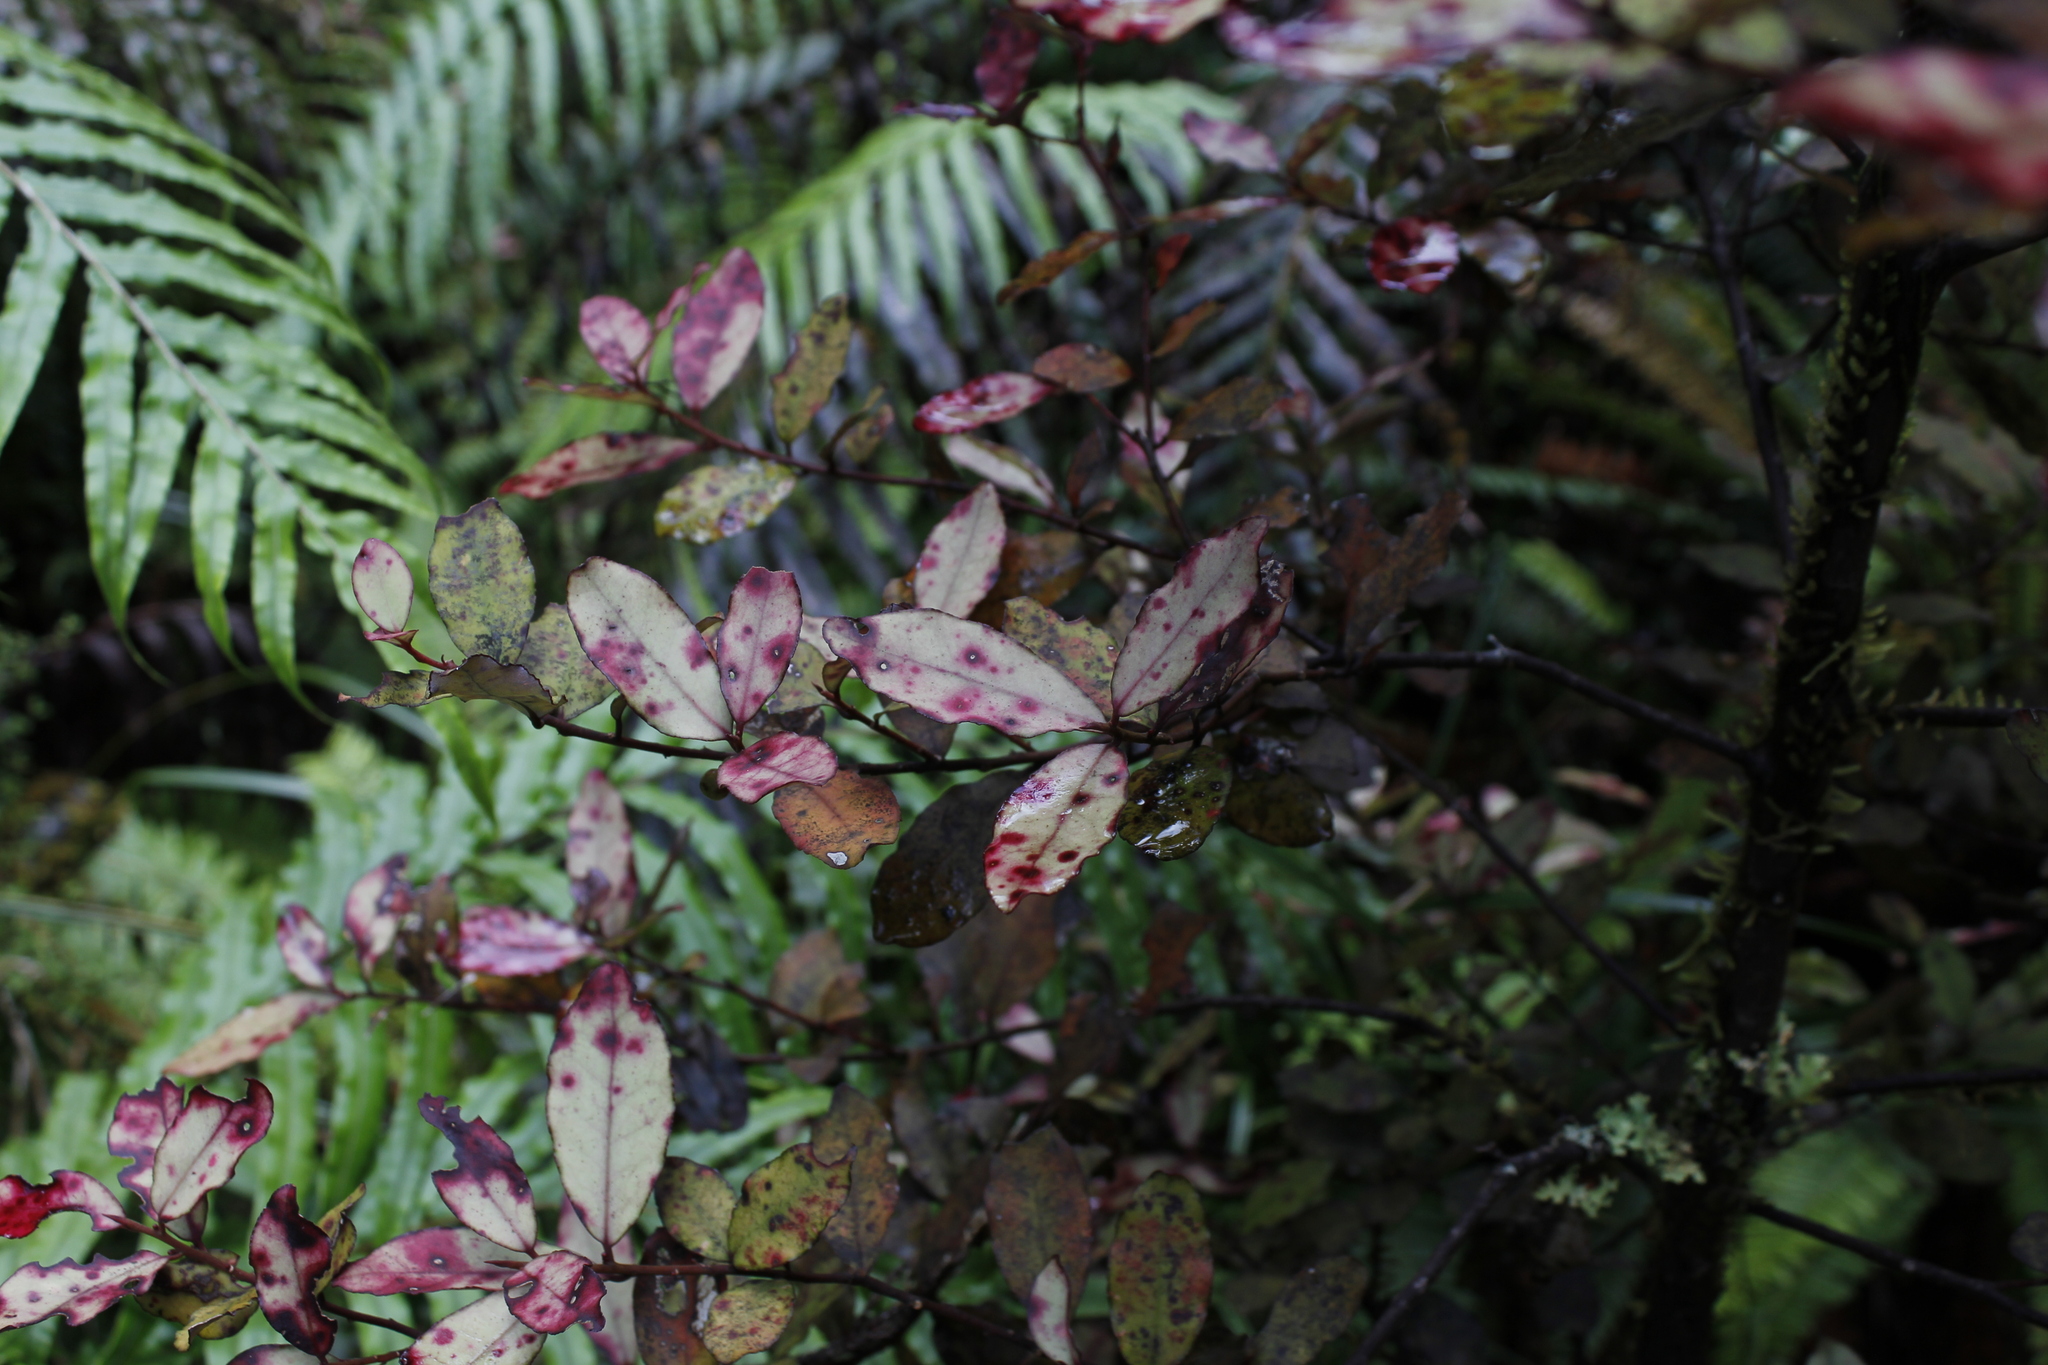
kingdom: Plantae
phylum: Tracheophyta
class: Magnoliopsida
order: Canellales
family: Winteraceae
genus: Pseudowintera
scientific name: Pseudowintera colorata
